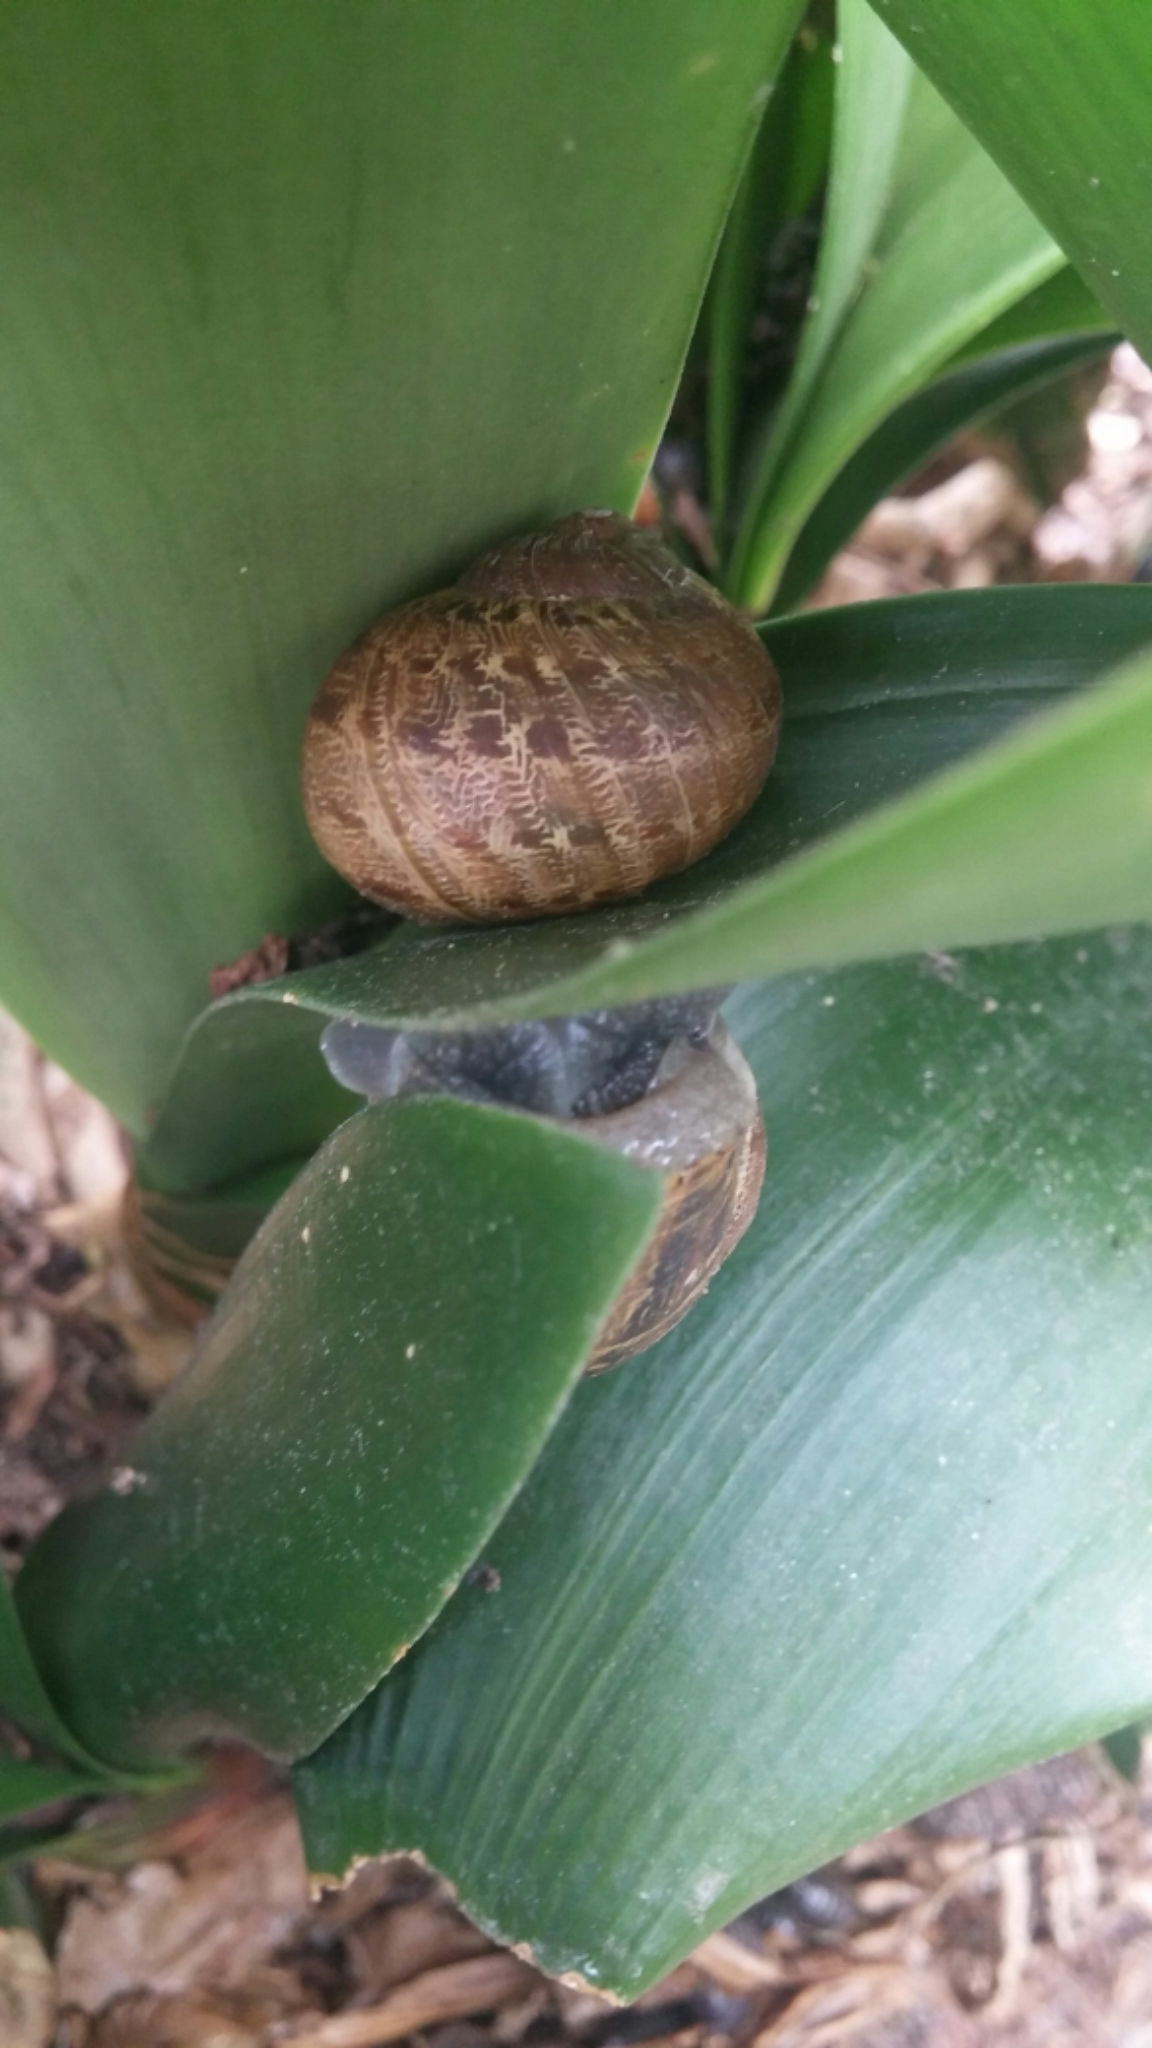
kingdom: Animalia
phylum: Mollusca
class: Gastropoda
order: Stylommatophora
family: Helicidae
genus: Cornu
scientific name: Cornu aspersum
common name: Brown garden snail
